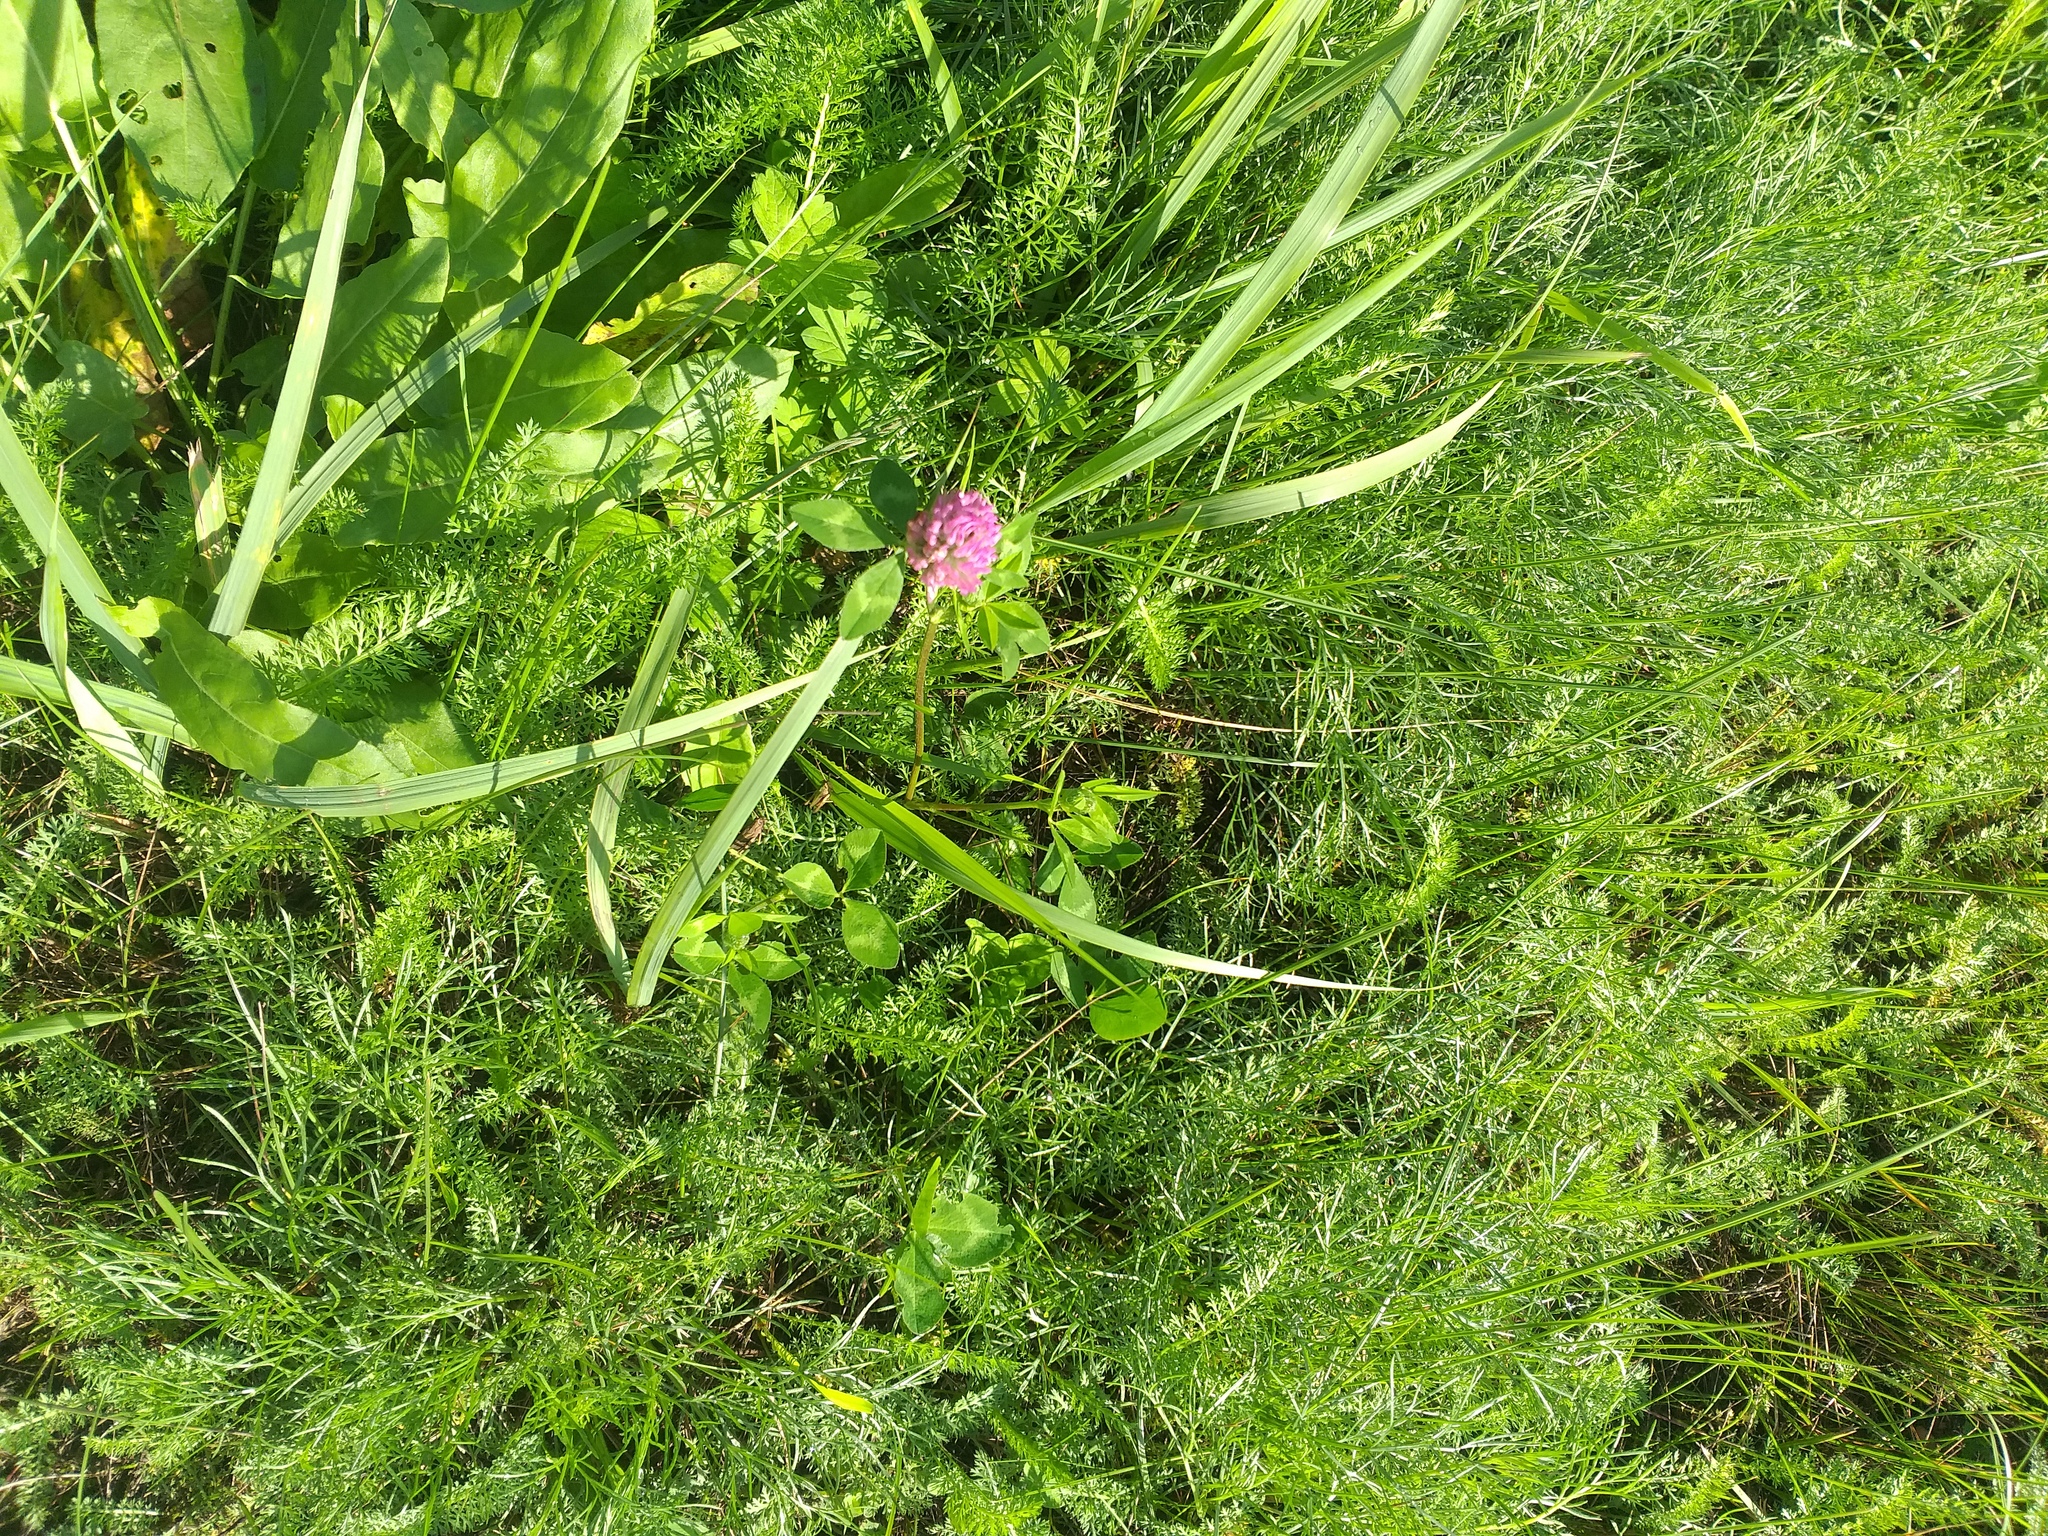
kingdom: Plantae
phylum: Tracheophyta
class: Magnoliopsida
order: Fabales
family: Fabaceae
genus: Trifolium
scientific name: Trifolium pratense
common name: Red clover
